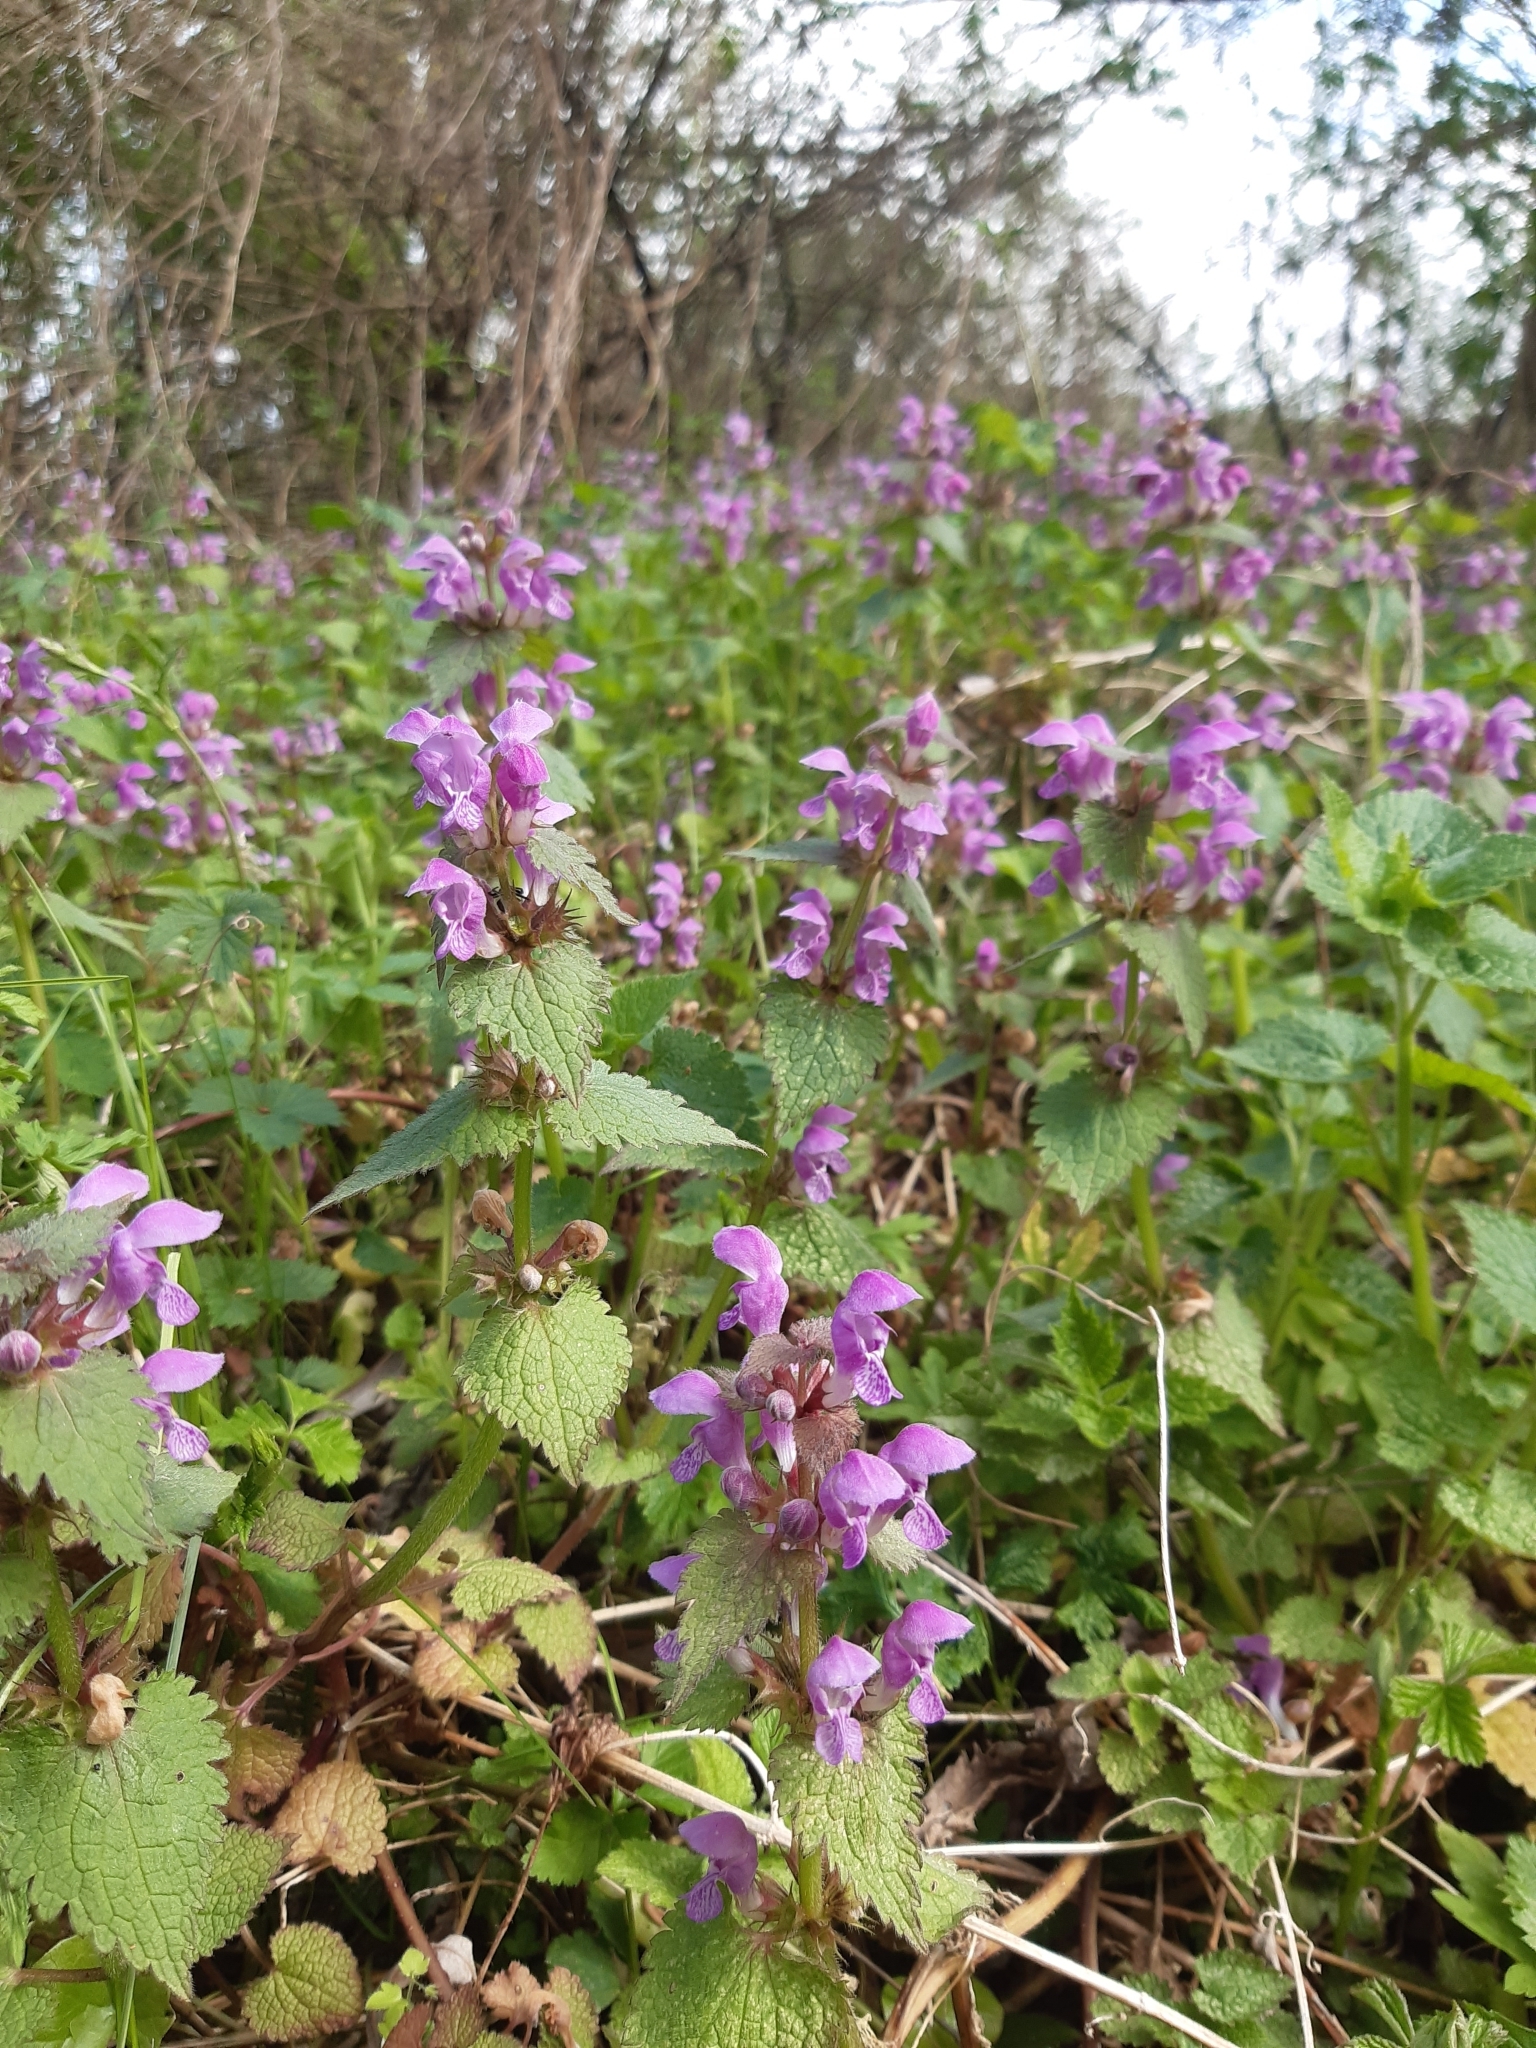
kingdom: Plantae
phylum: Tracheophyta
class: Magnoliopsida
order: Lamiales
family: Lamiaceae
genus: Lamium
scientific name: Lamium maculatum
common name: Spotted dead-nettle
